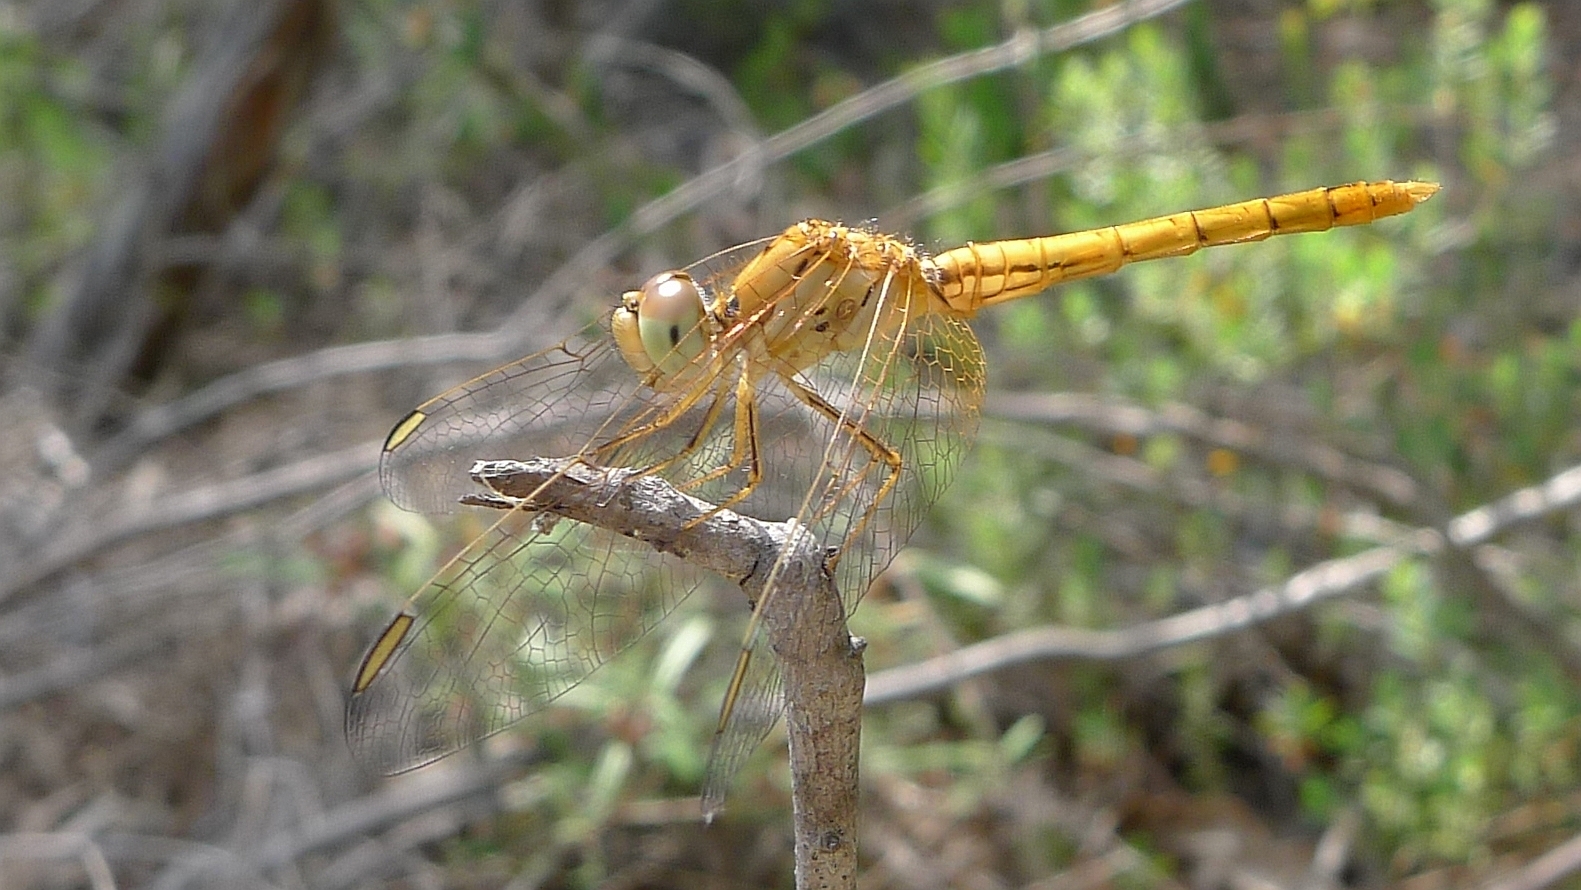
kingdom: Animalia
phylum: Arthropoda
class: Insecta
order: Odonata
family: Libellulidae
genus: Diplacodes
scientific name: Diplacodes haematodes
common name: Scarlet percher
